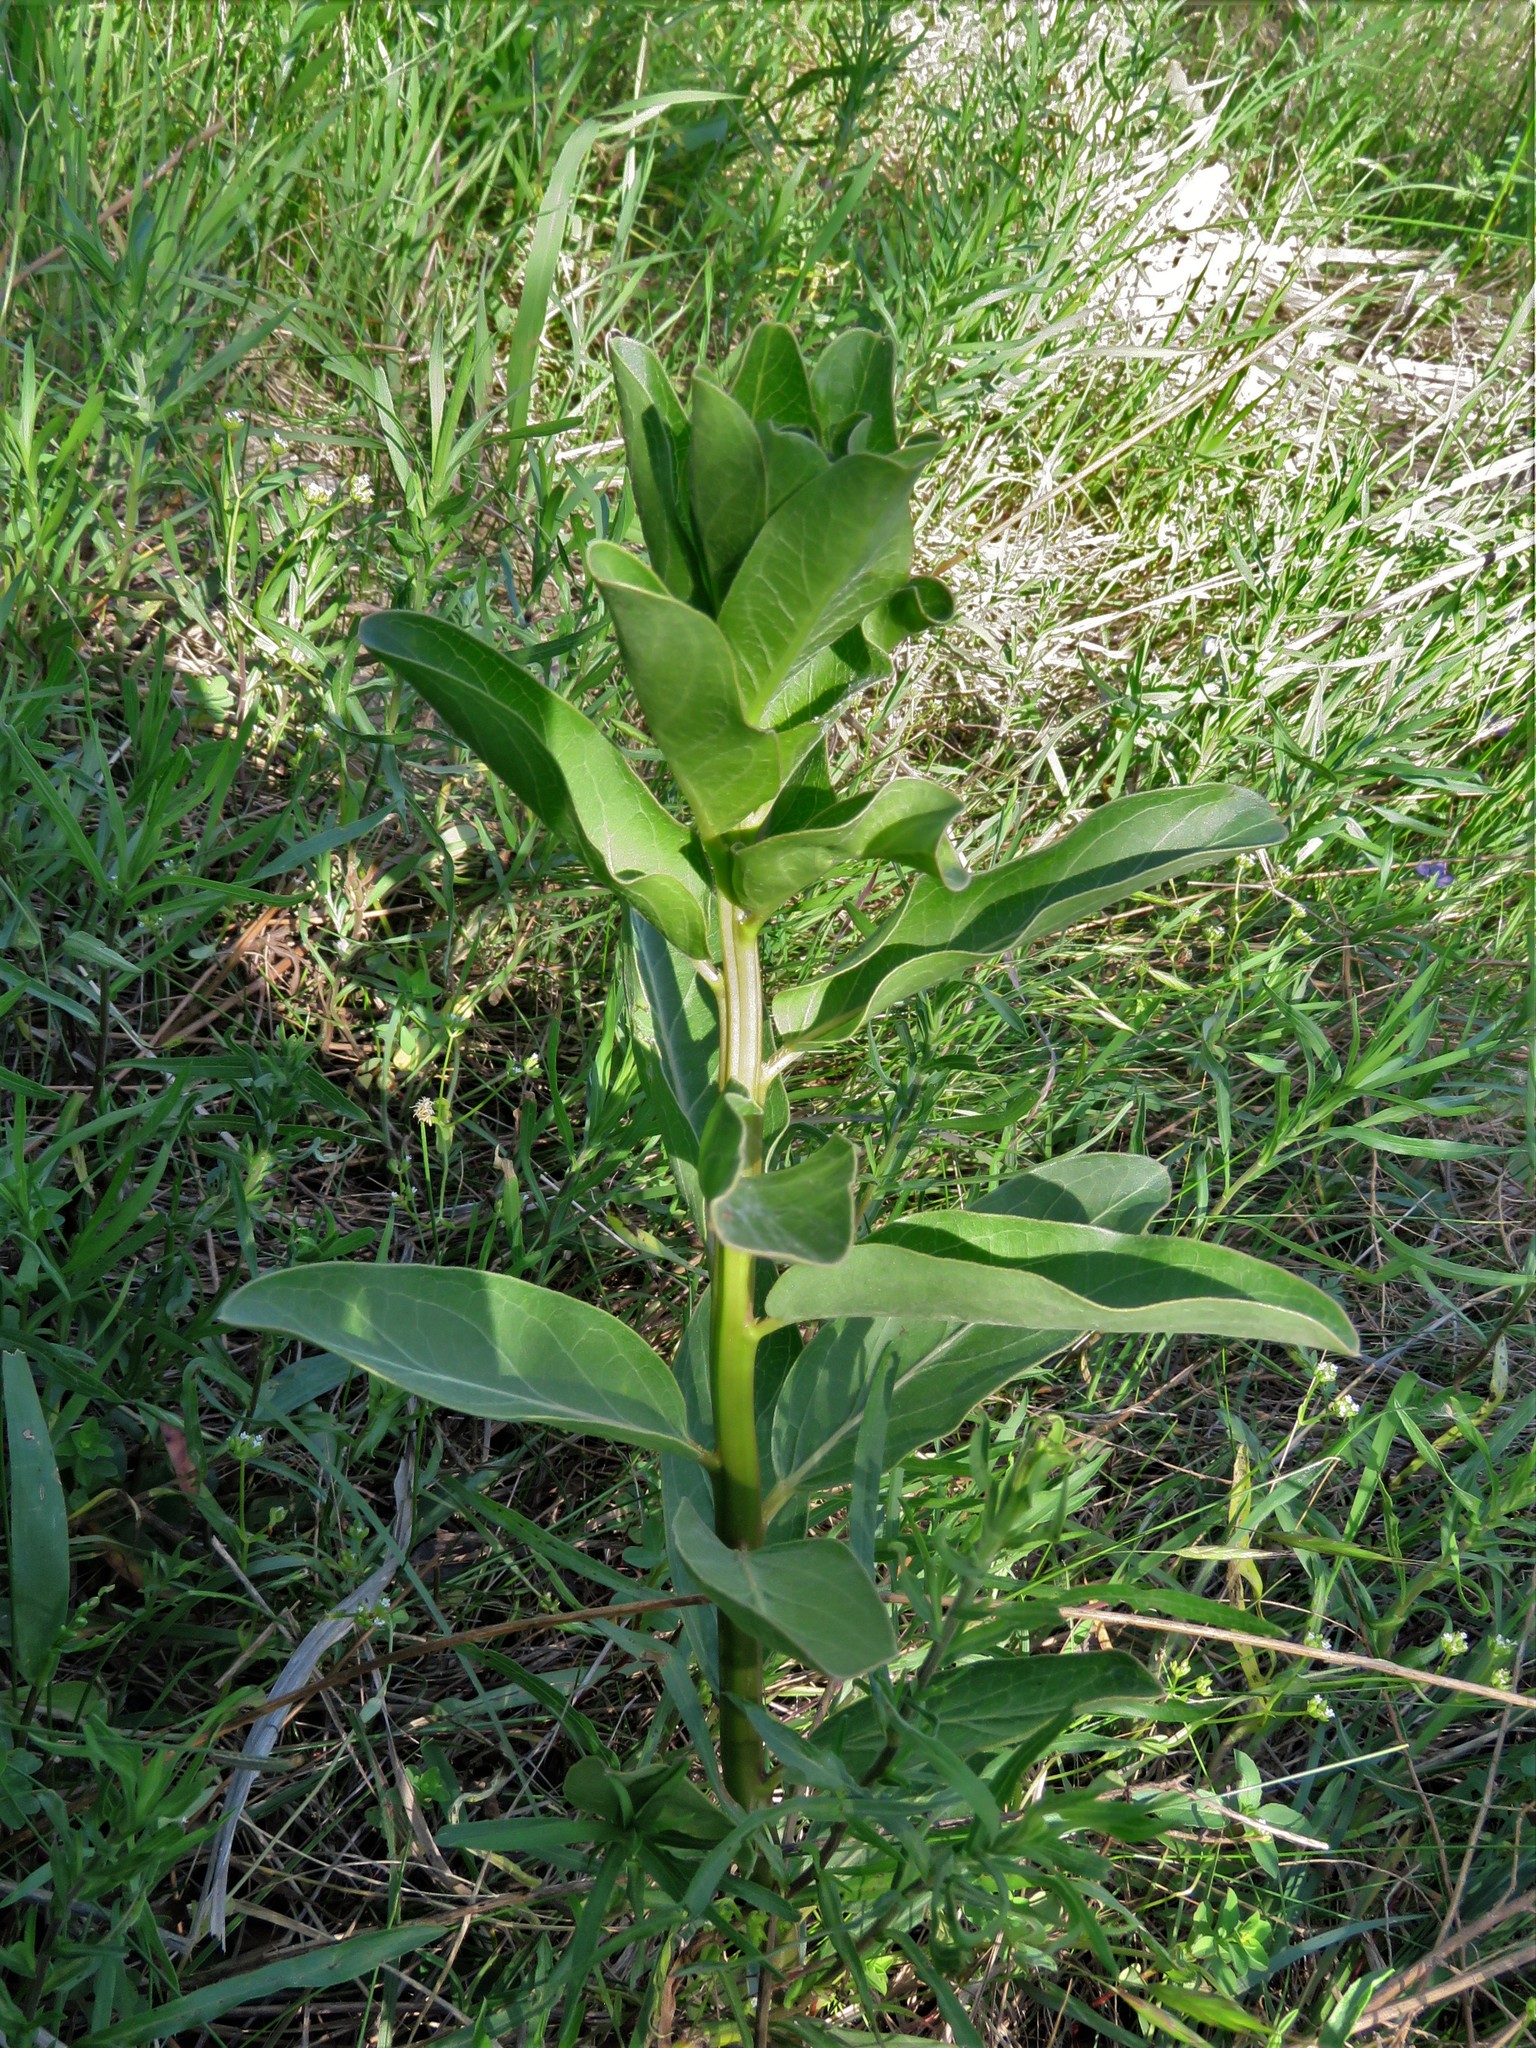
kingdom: Plantae
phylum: Tracheophyta
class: Magnoliopsida
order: Gentianales
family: Apocynaceae
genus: Asclepias
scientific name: Asclepias viridis
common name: Antelope-horns
